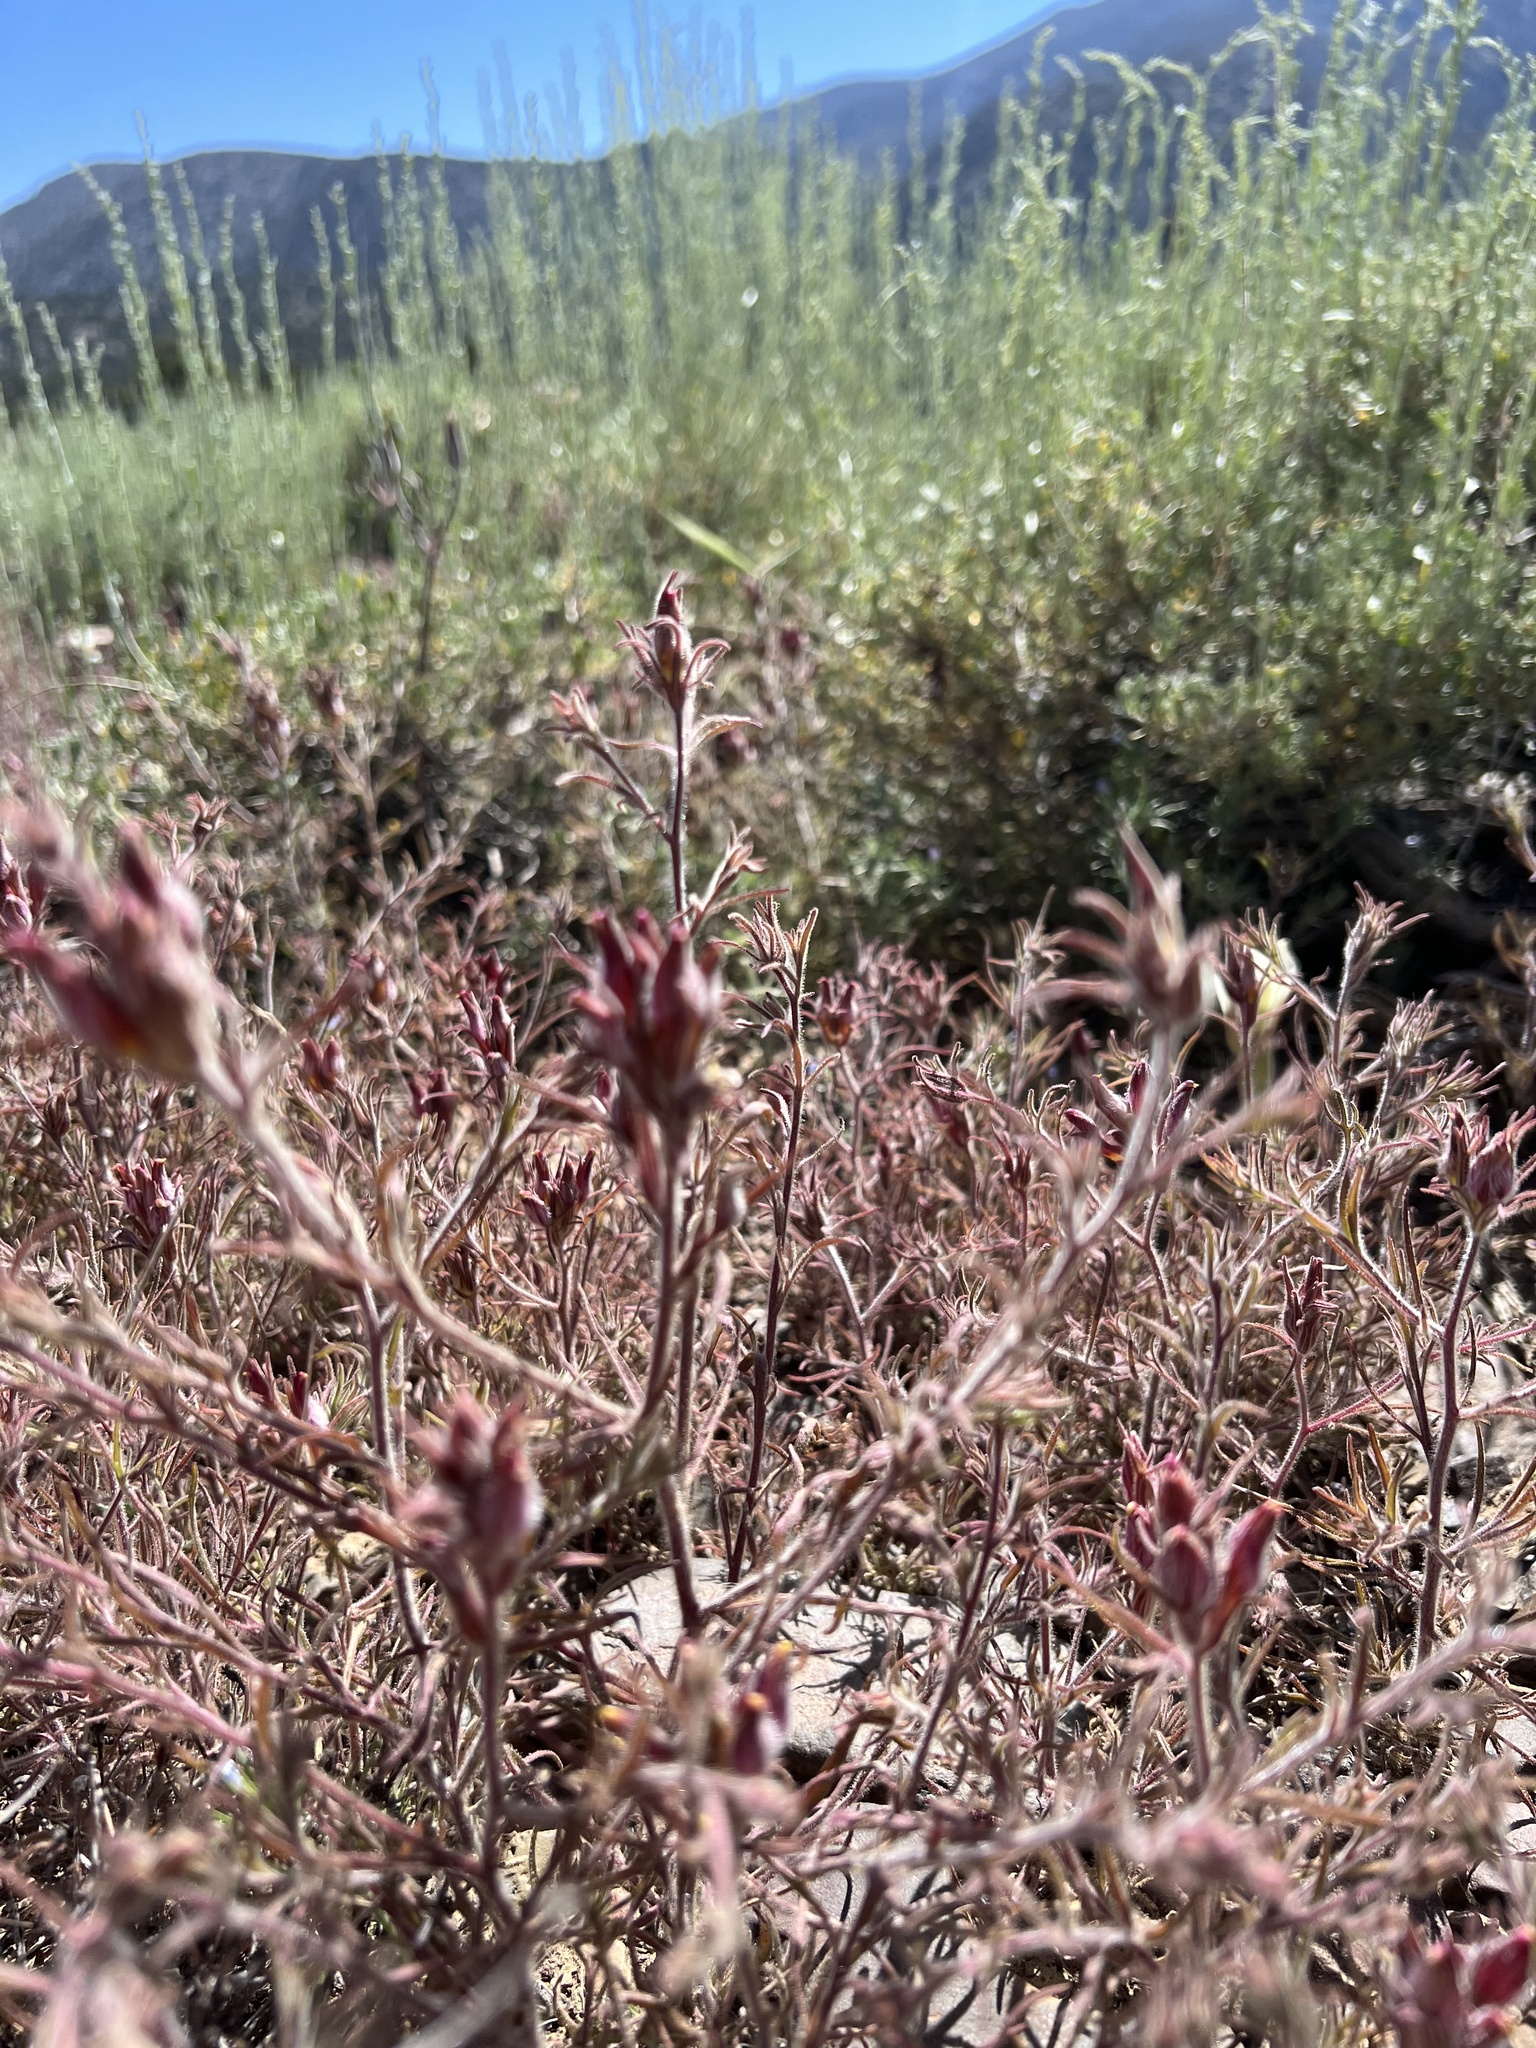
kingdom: Plantae
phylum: Tracheophyta
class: Magnoliopsida
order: Lamiales
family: Orobanchaceae
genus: Cordylanthus
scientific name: Cordylanthus kingii
